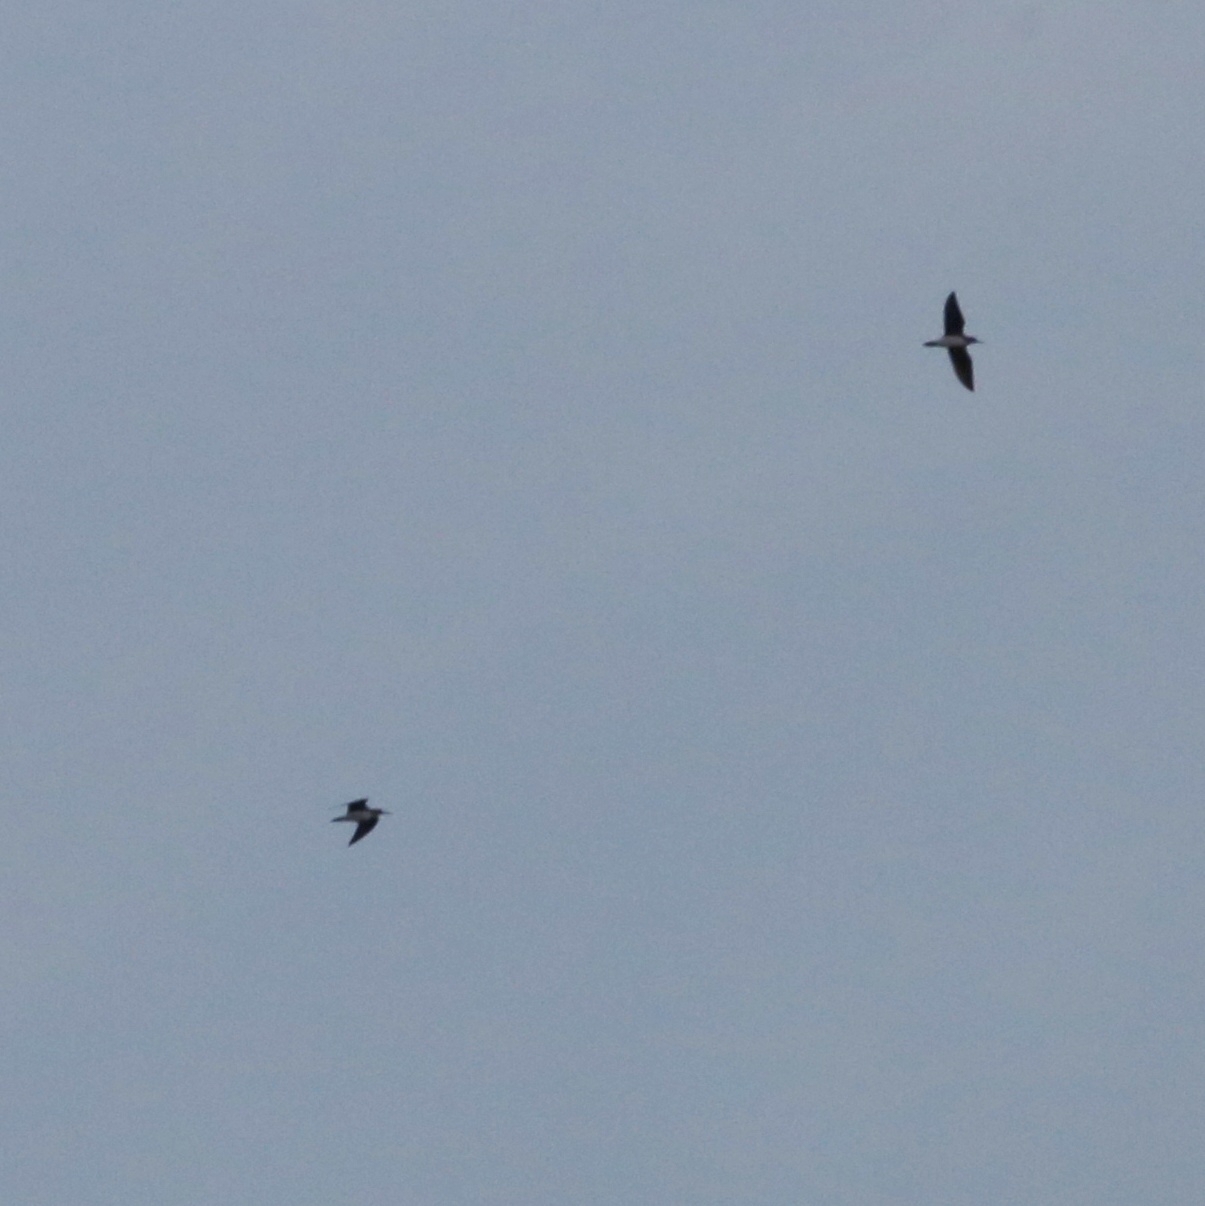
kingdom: Animalia
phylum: Chordata
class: Aves
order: Charadriiformes
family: Scolopacidae
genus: Tringa
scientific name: Tringa ochropus
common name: Green sandpiper
